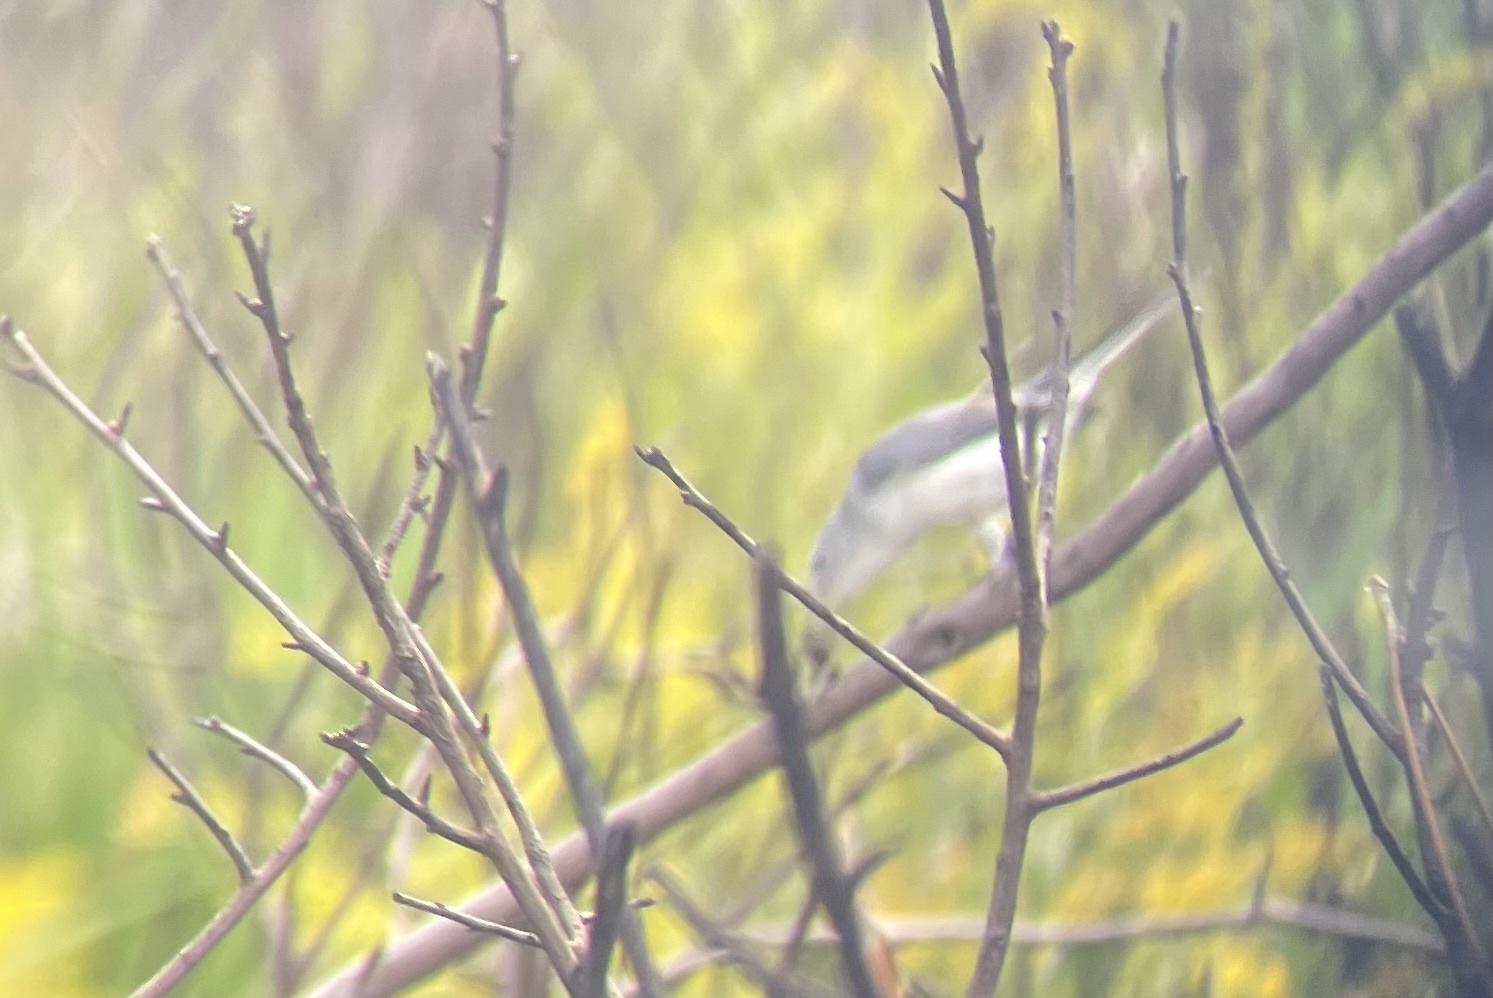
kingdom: Animalia
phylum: Chordata
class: Aves
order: Passeriformes
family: Polioptilidae
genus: Polioptila
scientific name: Polioptila caerulea
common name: Blue-gray gnatcatcher
